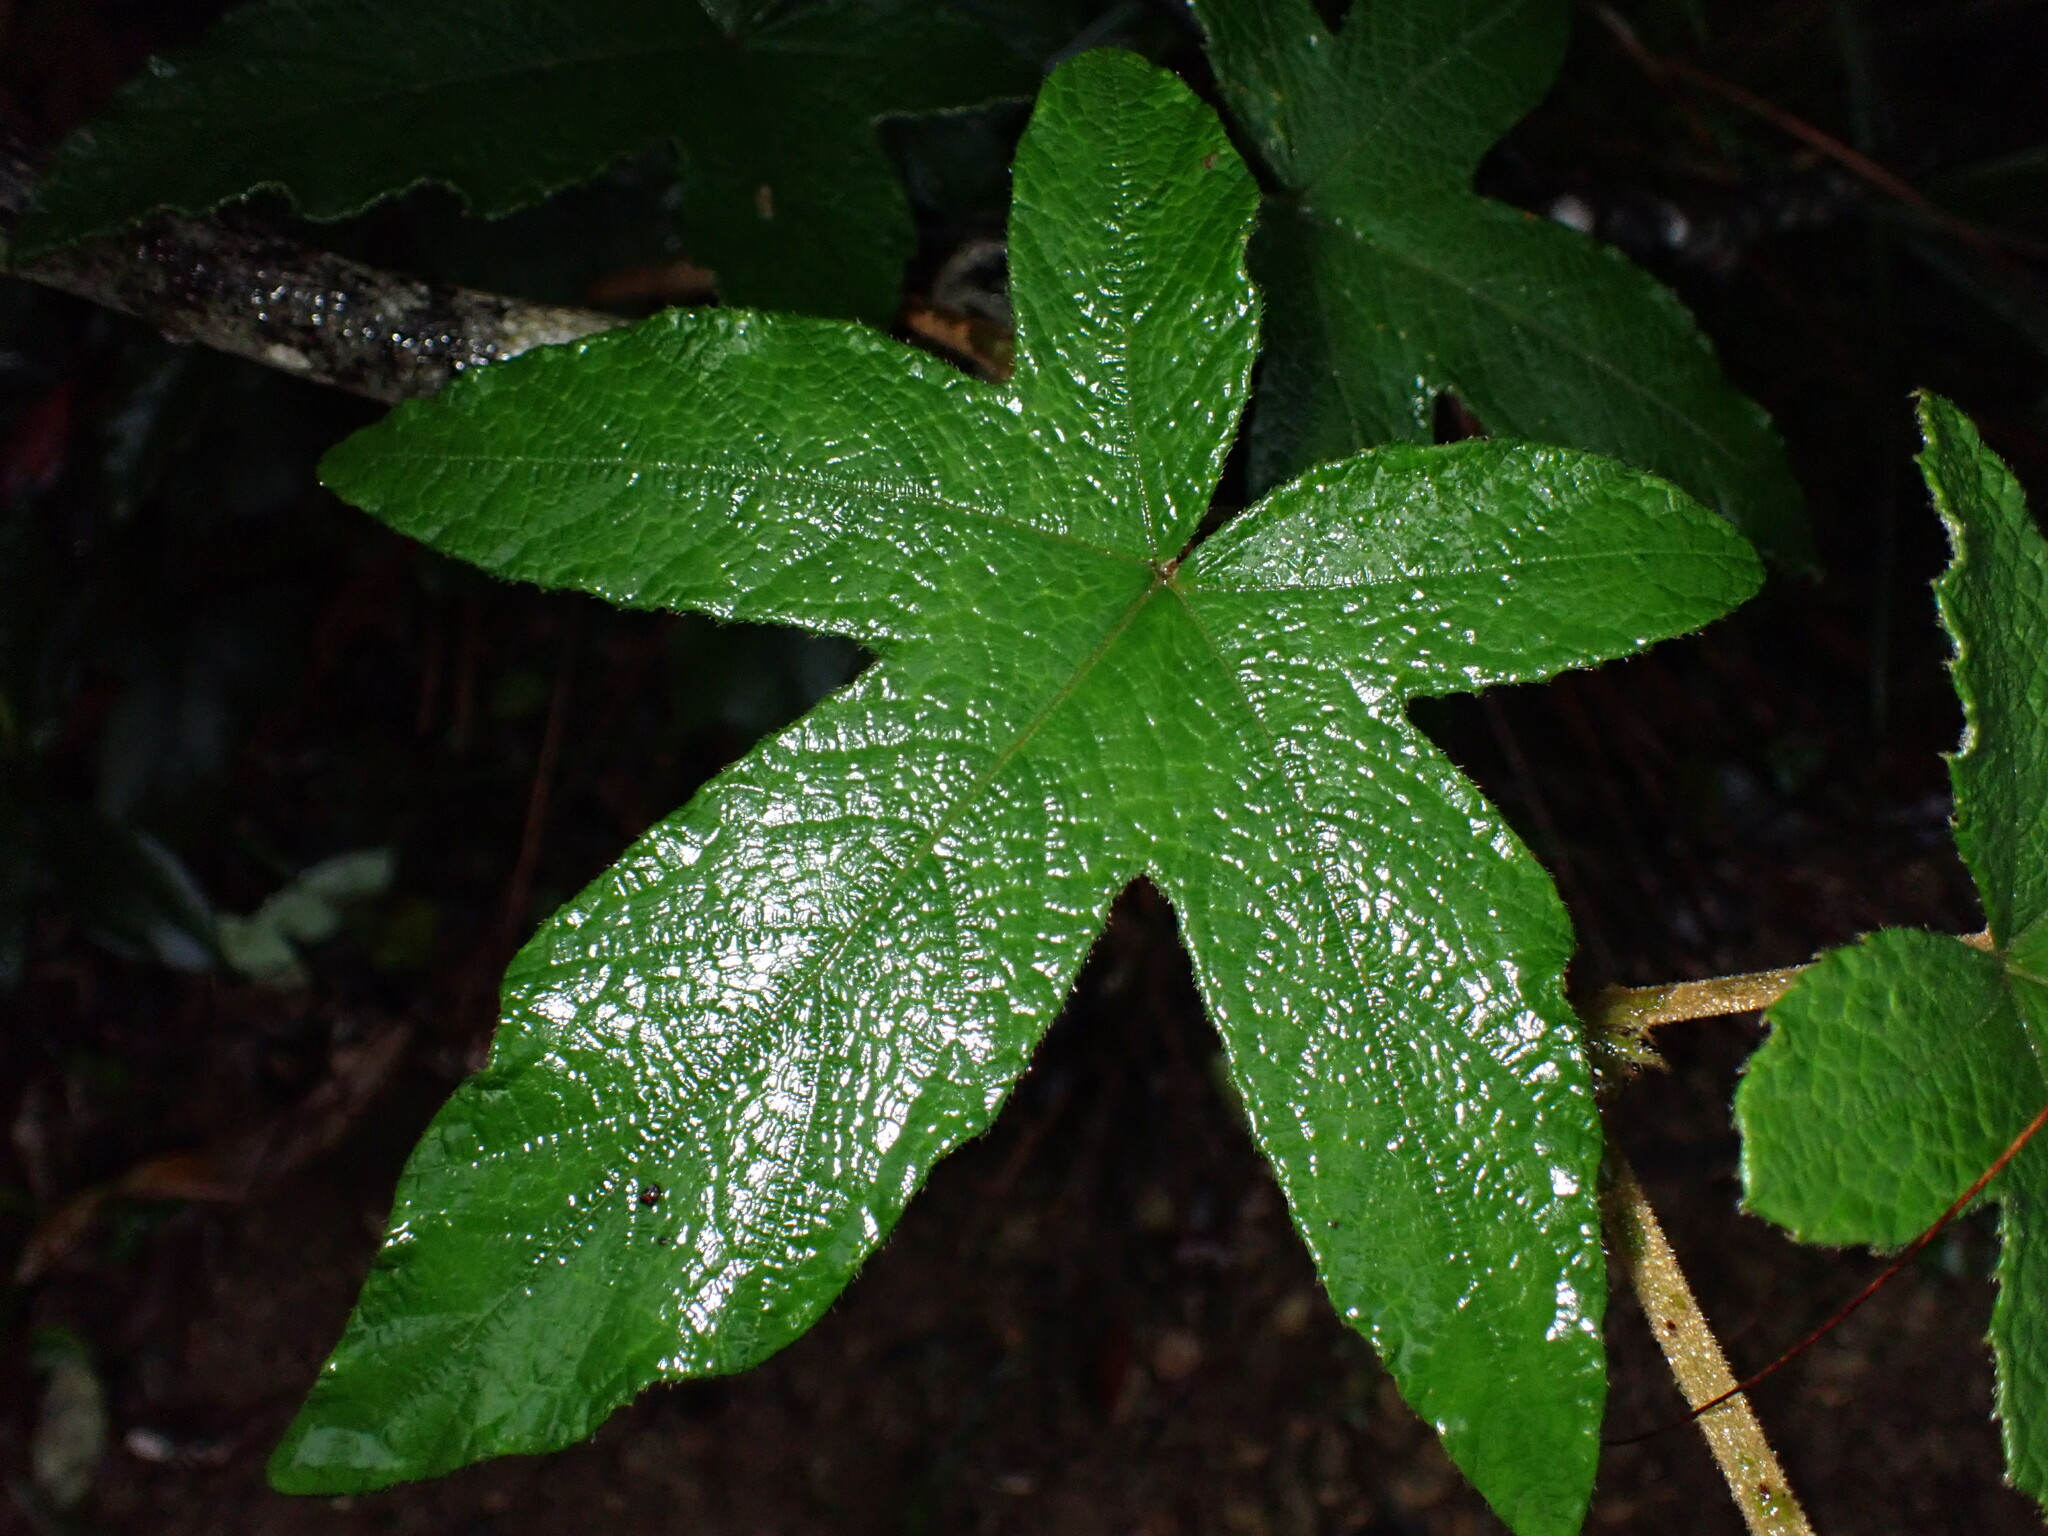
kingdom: Plantae
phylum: Tracheophyta
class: Magnoliopsida
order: Rosales
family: Rosaceae
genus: Rubus
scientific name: Rubus reflexus
